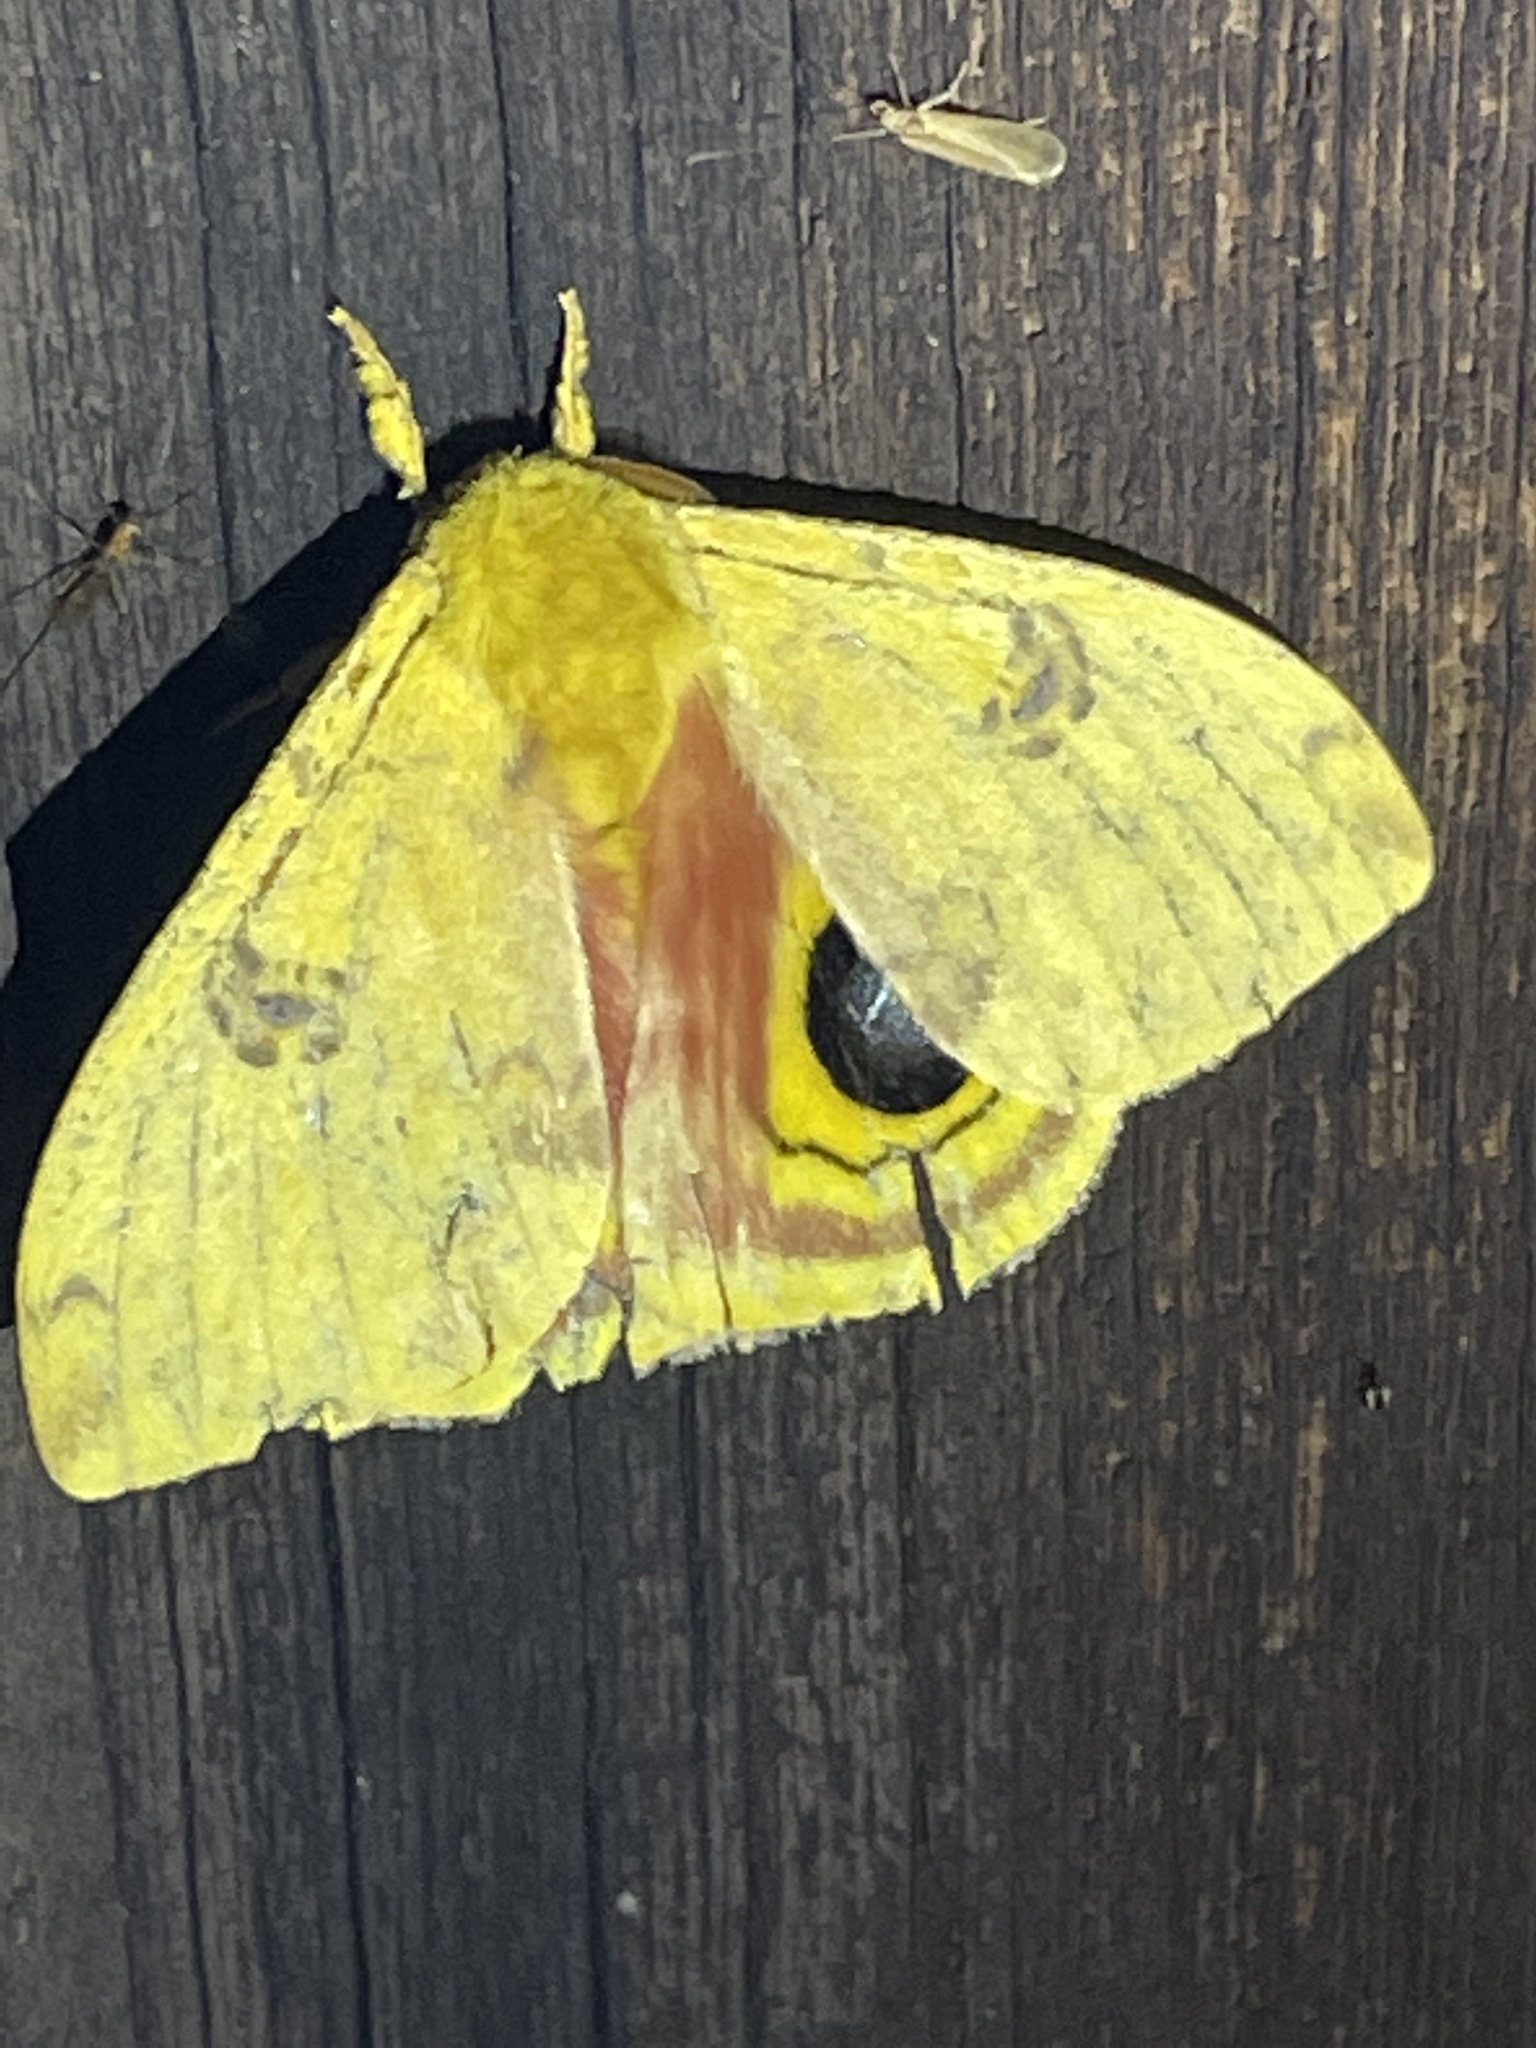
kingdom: Animalia
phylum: Arthropoda
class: Insecta
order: Lepidoptera
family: Saturniidae
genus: Automeris
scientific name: Automeris io
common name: Io moth
